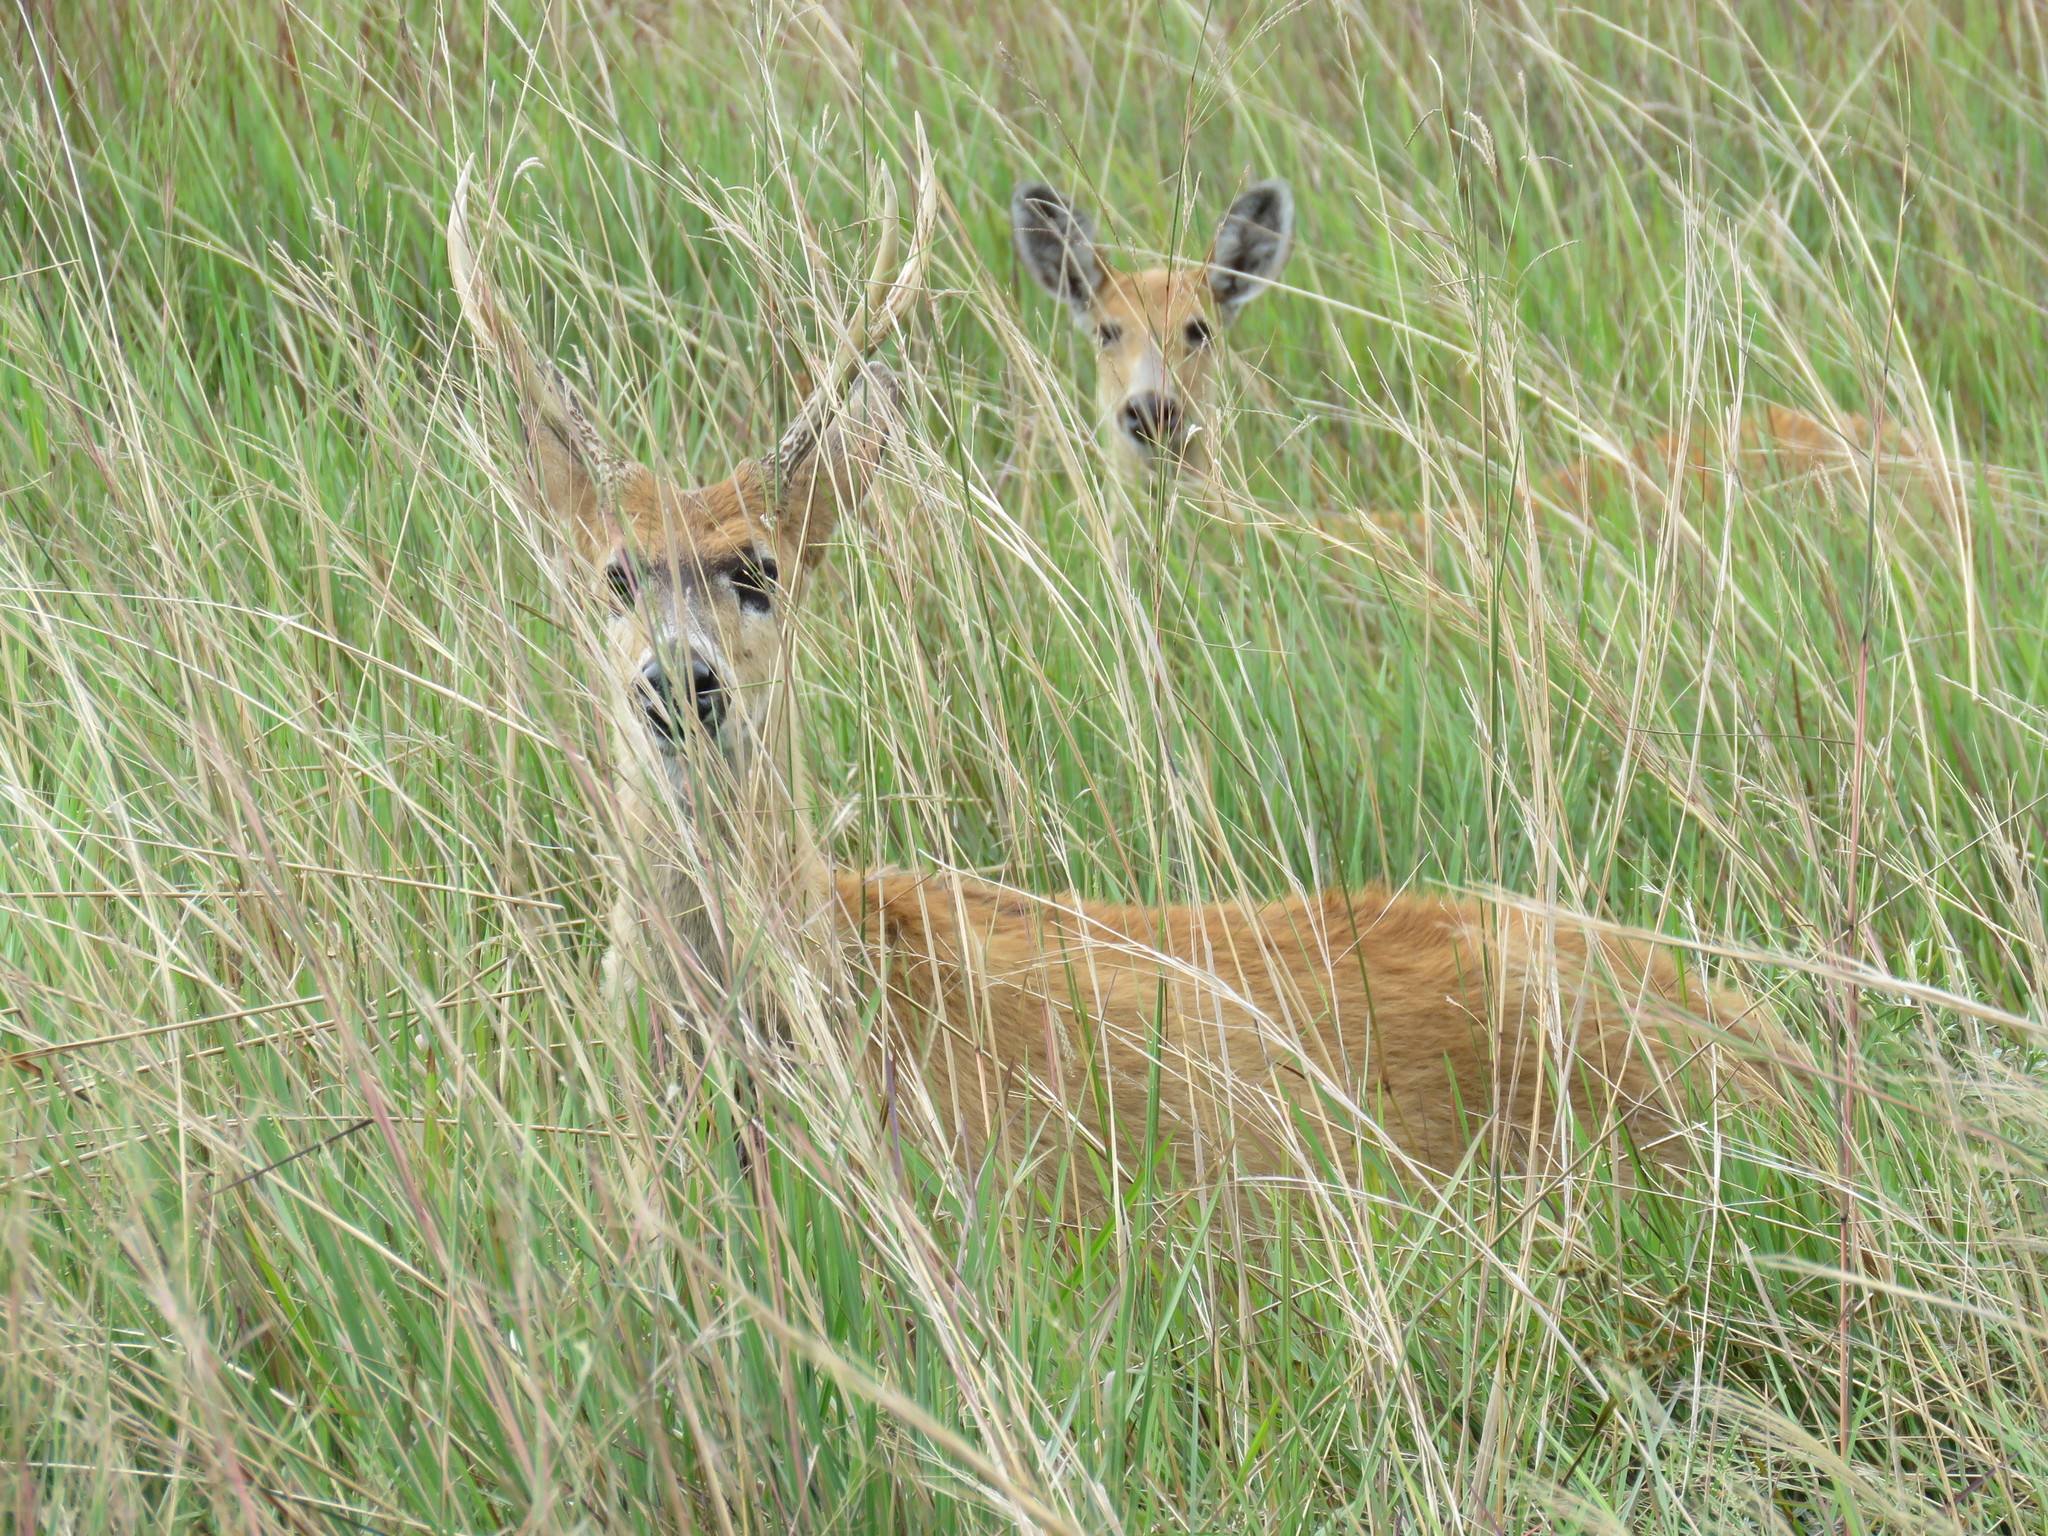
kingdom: Animalia
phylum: Chordata
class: Mammalia
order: Artiodactyla
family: Cervidae
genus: Blastocerus
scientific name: Blastocerus dichotomus
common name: Marsh deer
